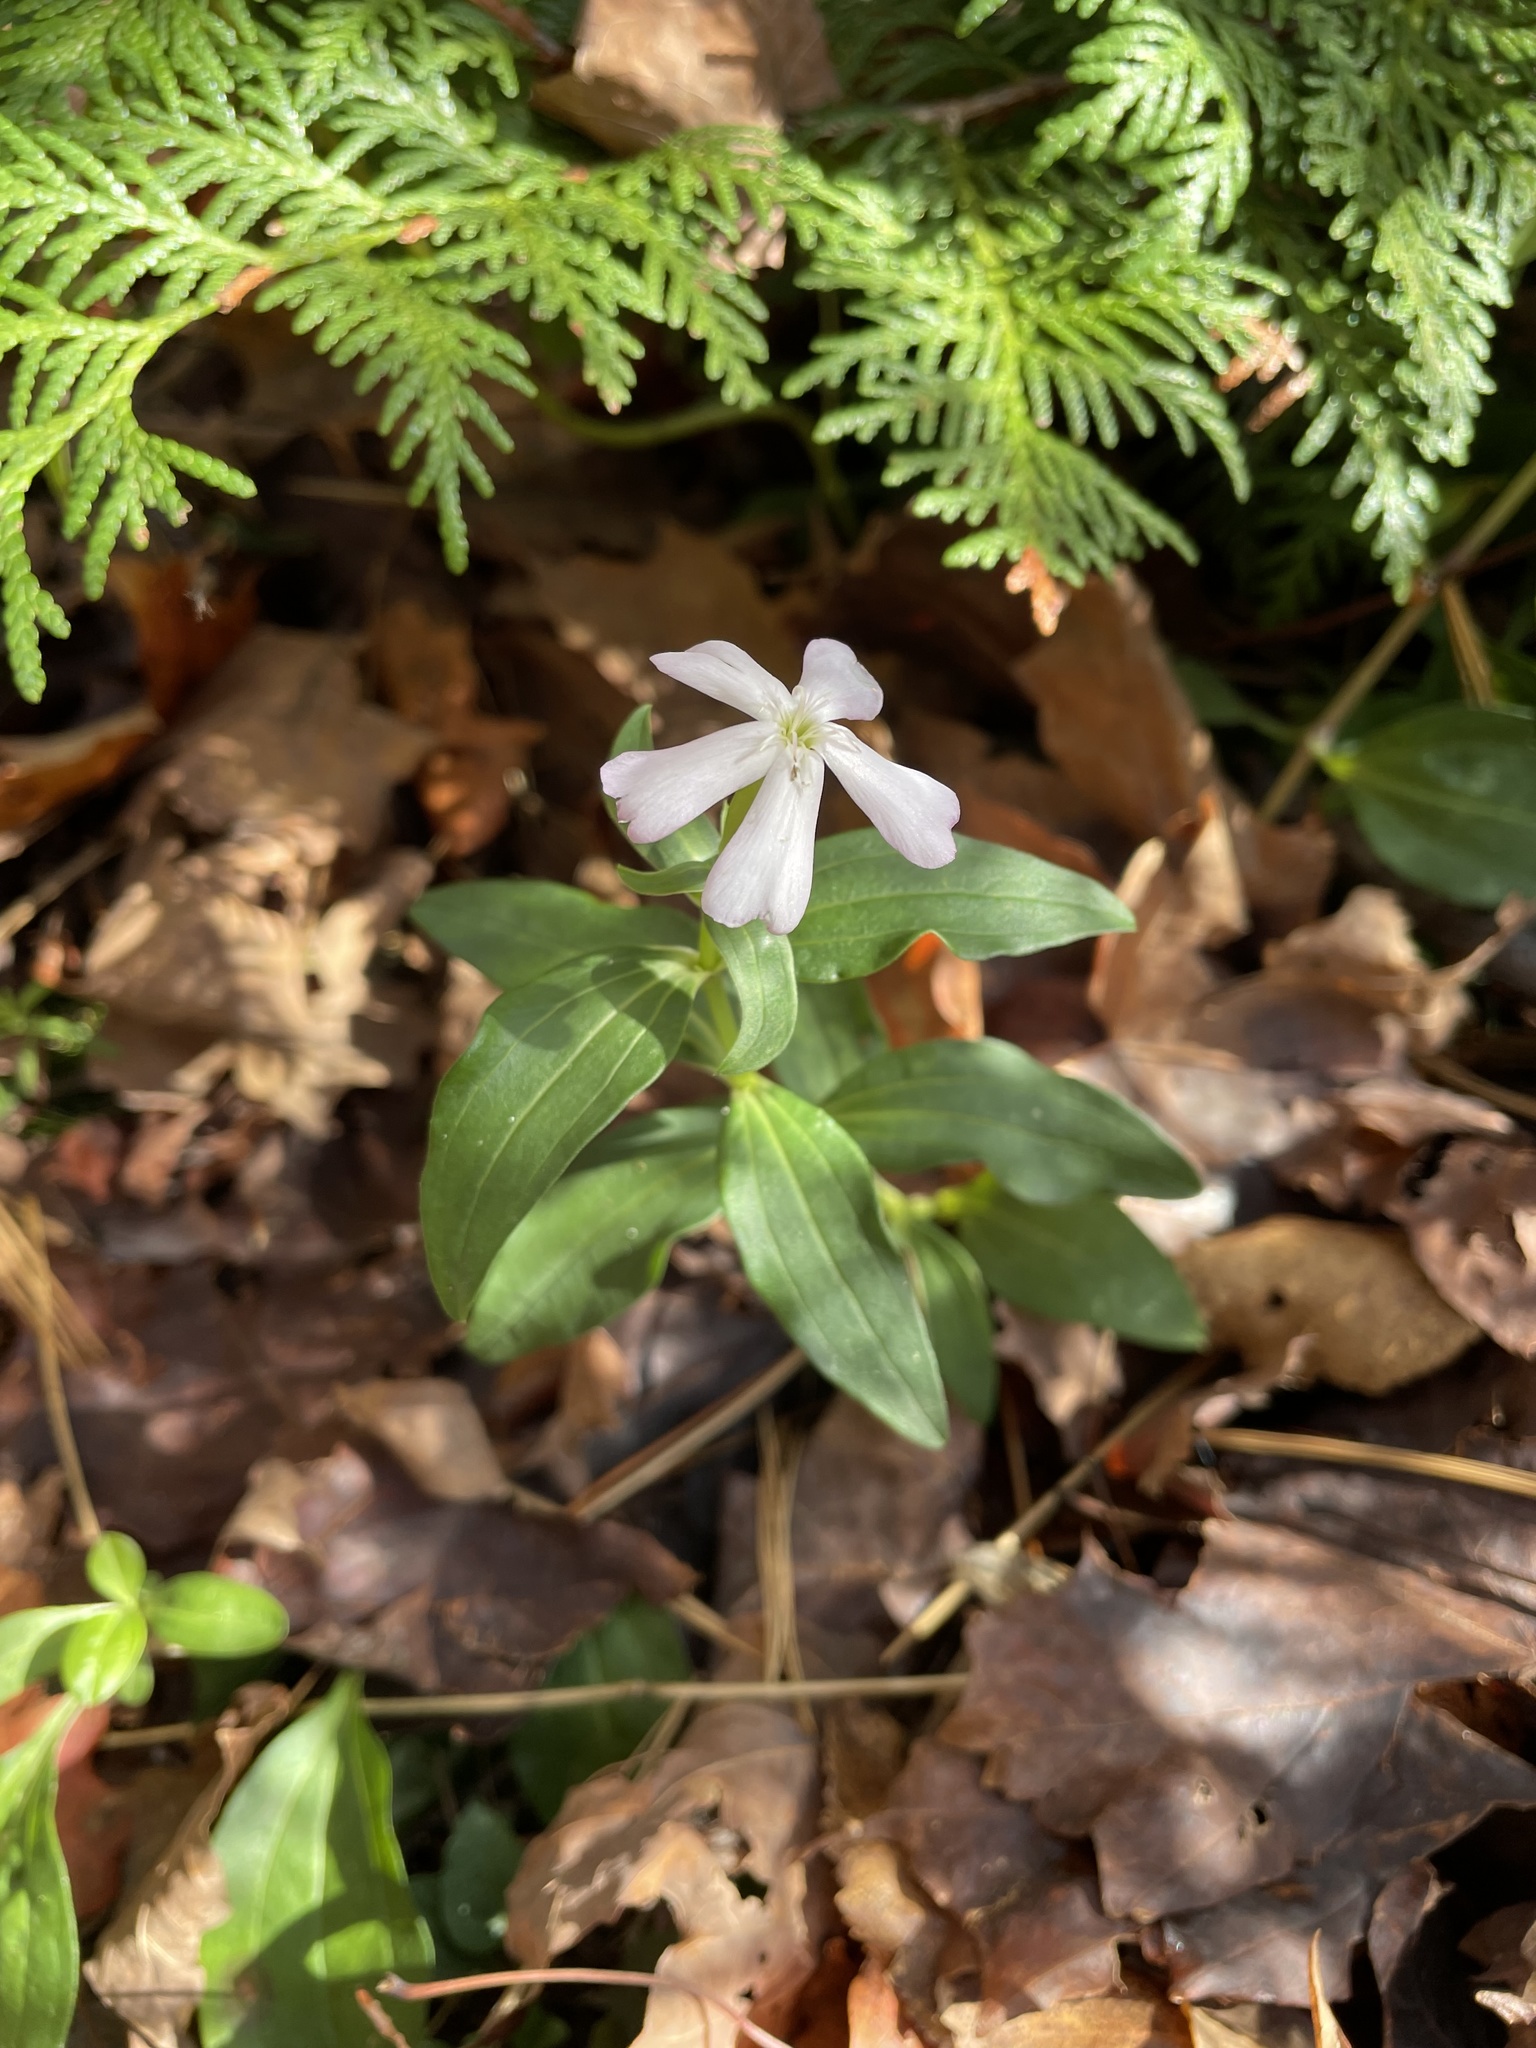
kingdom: Plantae
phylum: Tracheophyta
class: Magnoliopsida
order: Caryophyllales
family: Caryophyllaceae
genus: Saponaria
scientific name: Saponaria officinalis
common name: Soapwort
